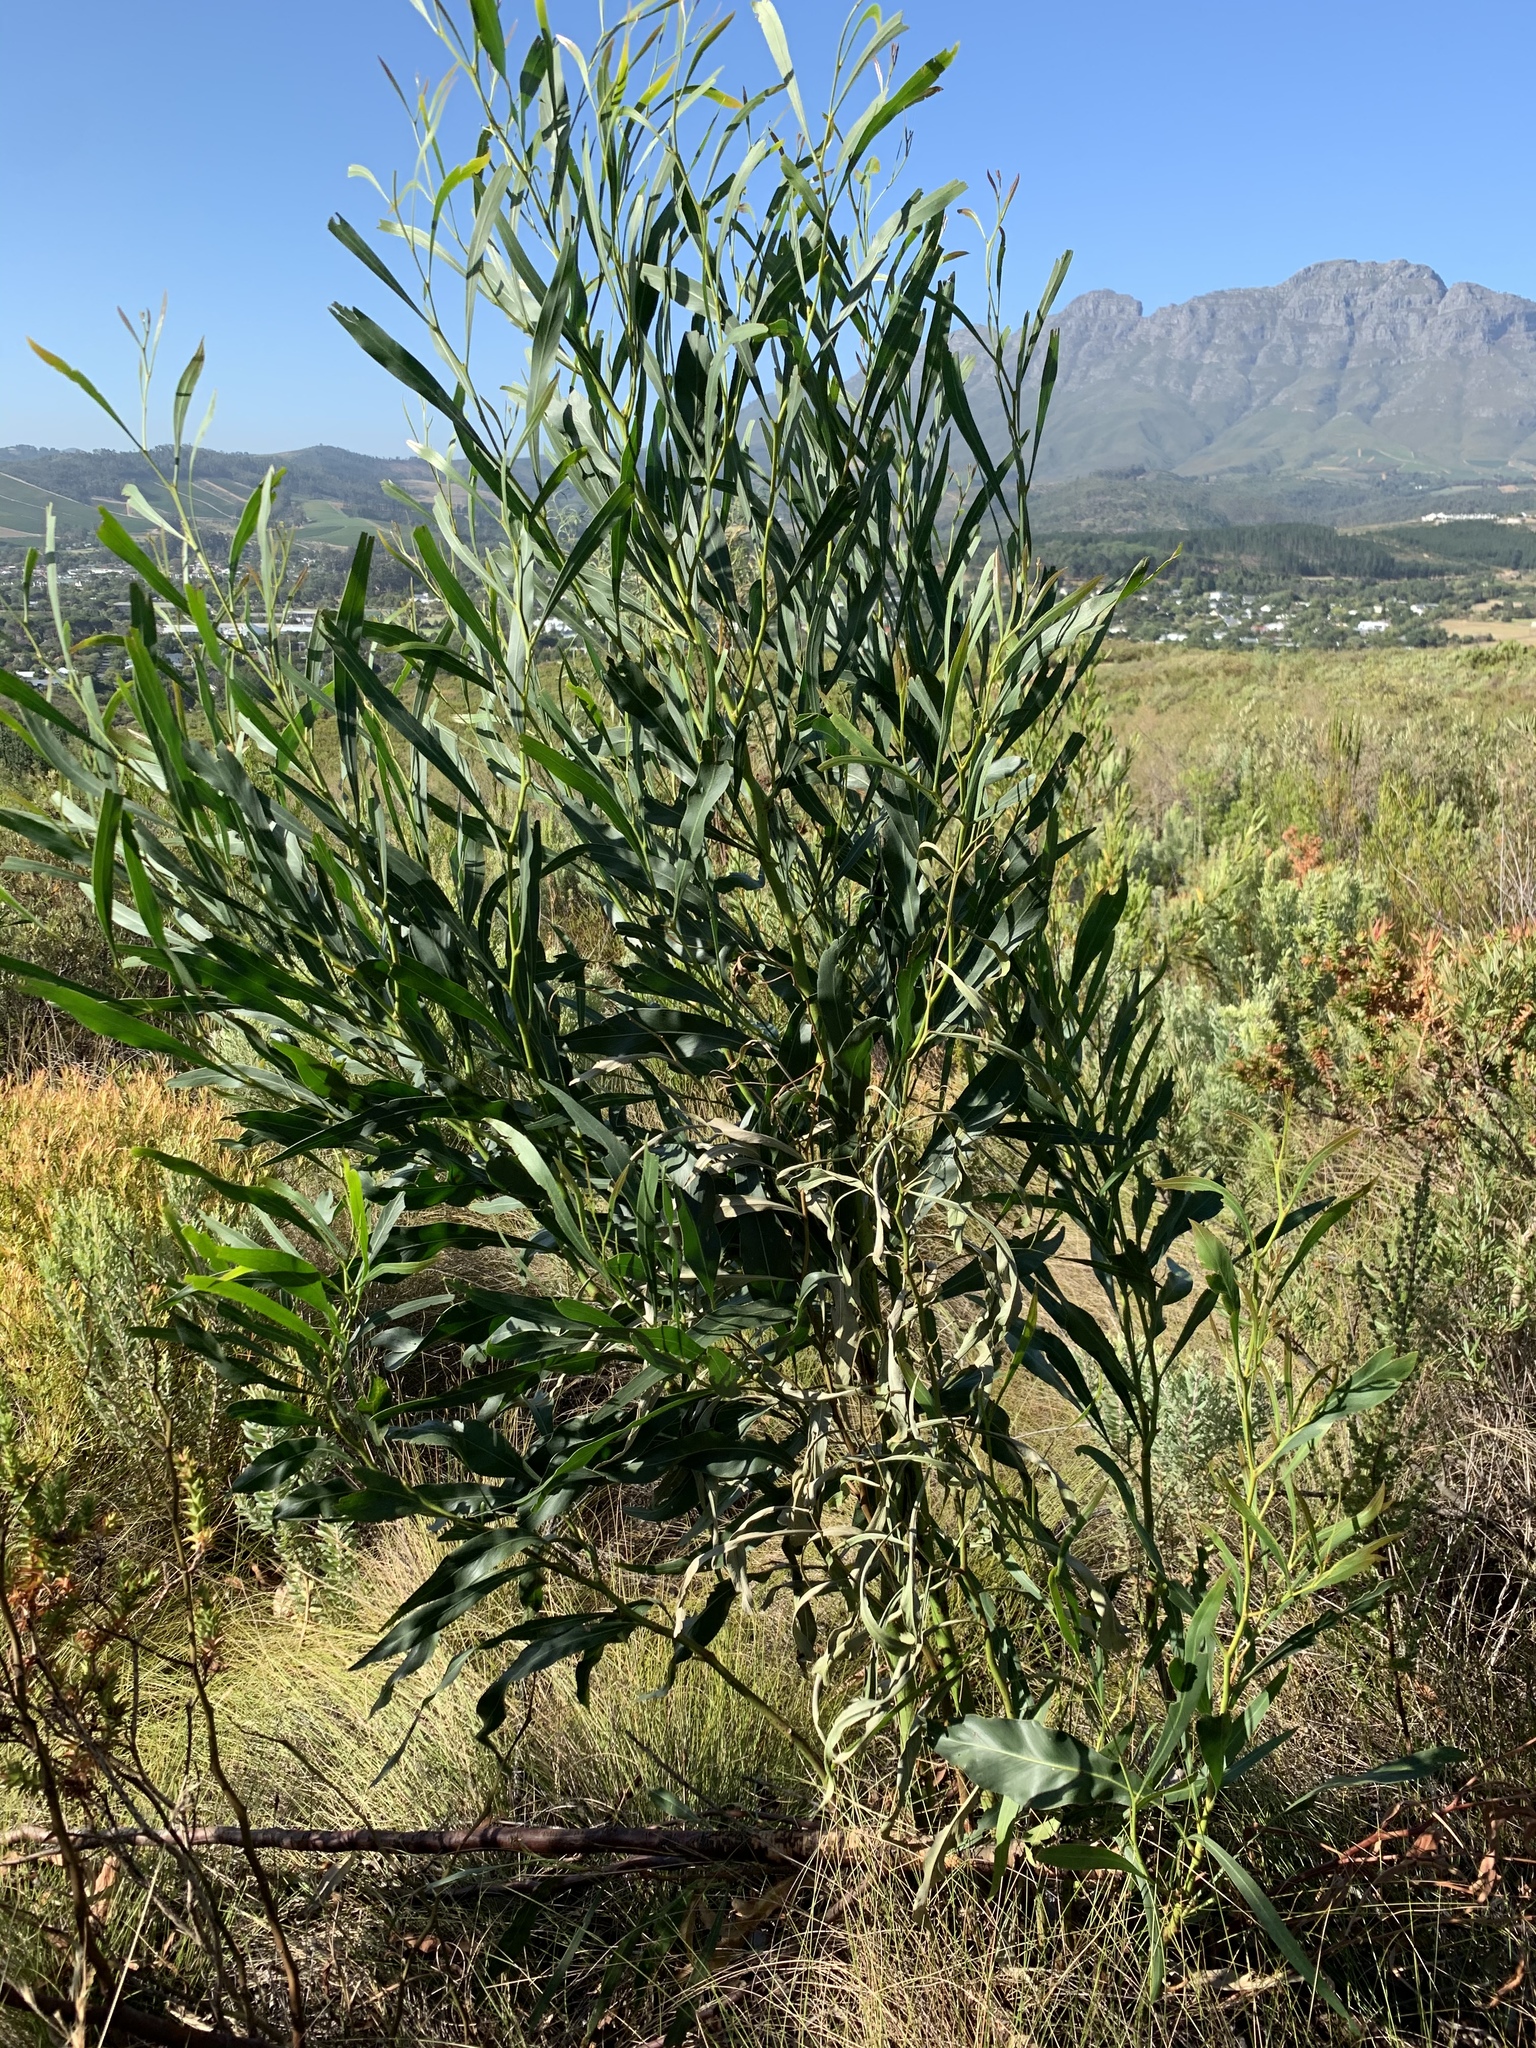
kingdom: Plantae
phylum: Tracheophyta
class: Magnoliopsida
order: Fabales
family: Fabaceae
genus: Acacia
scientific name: Acacia saligna
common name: Orange wattle
